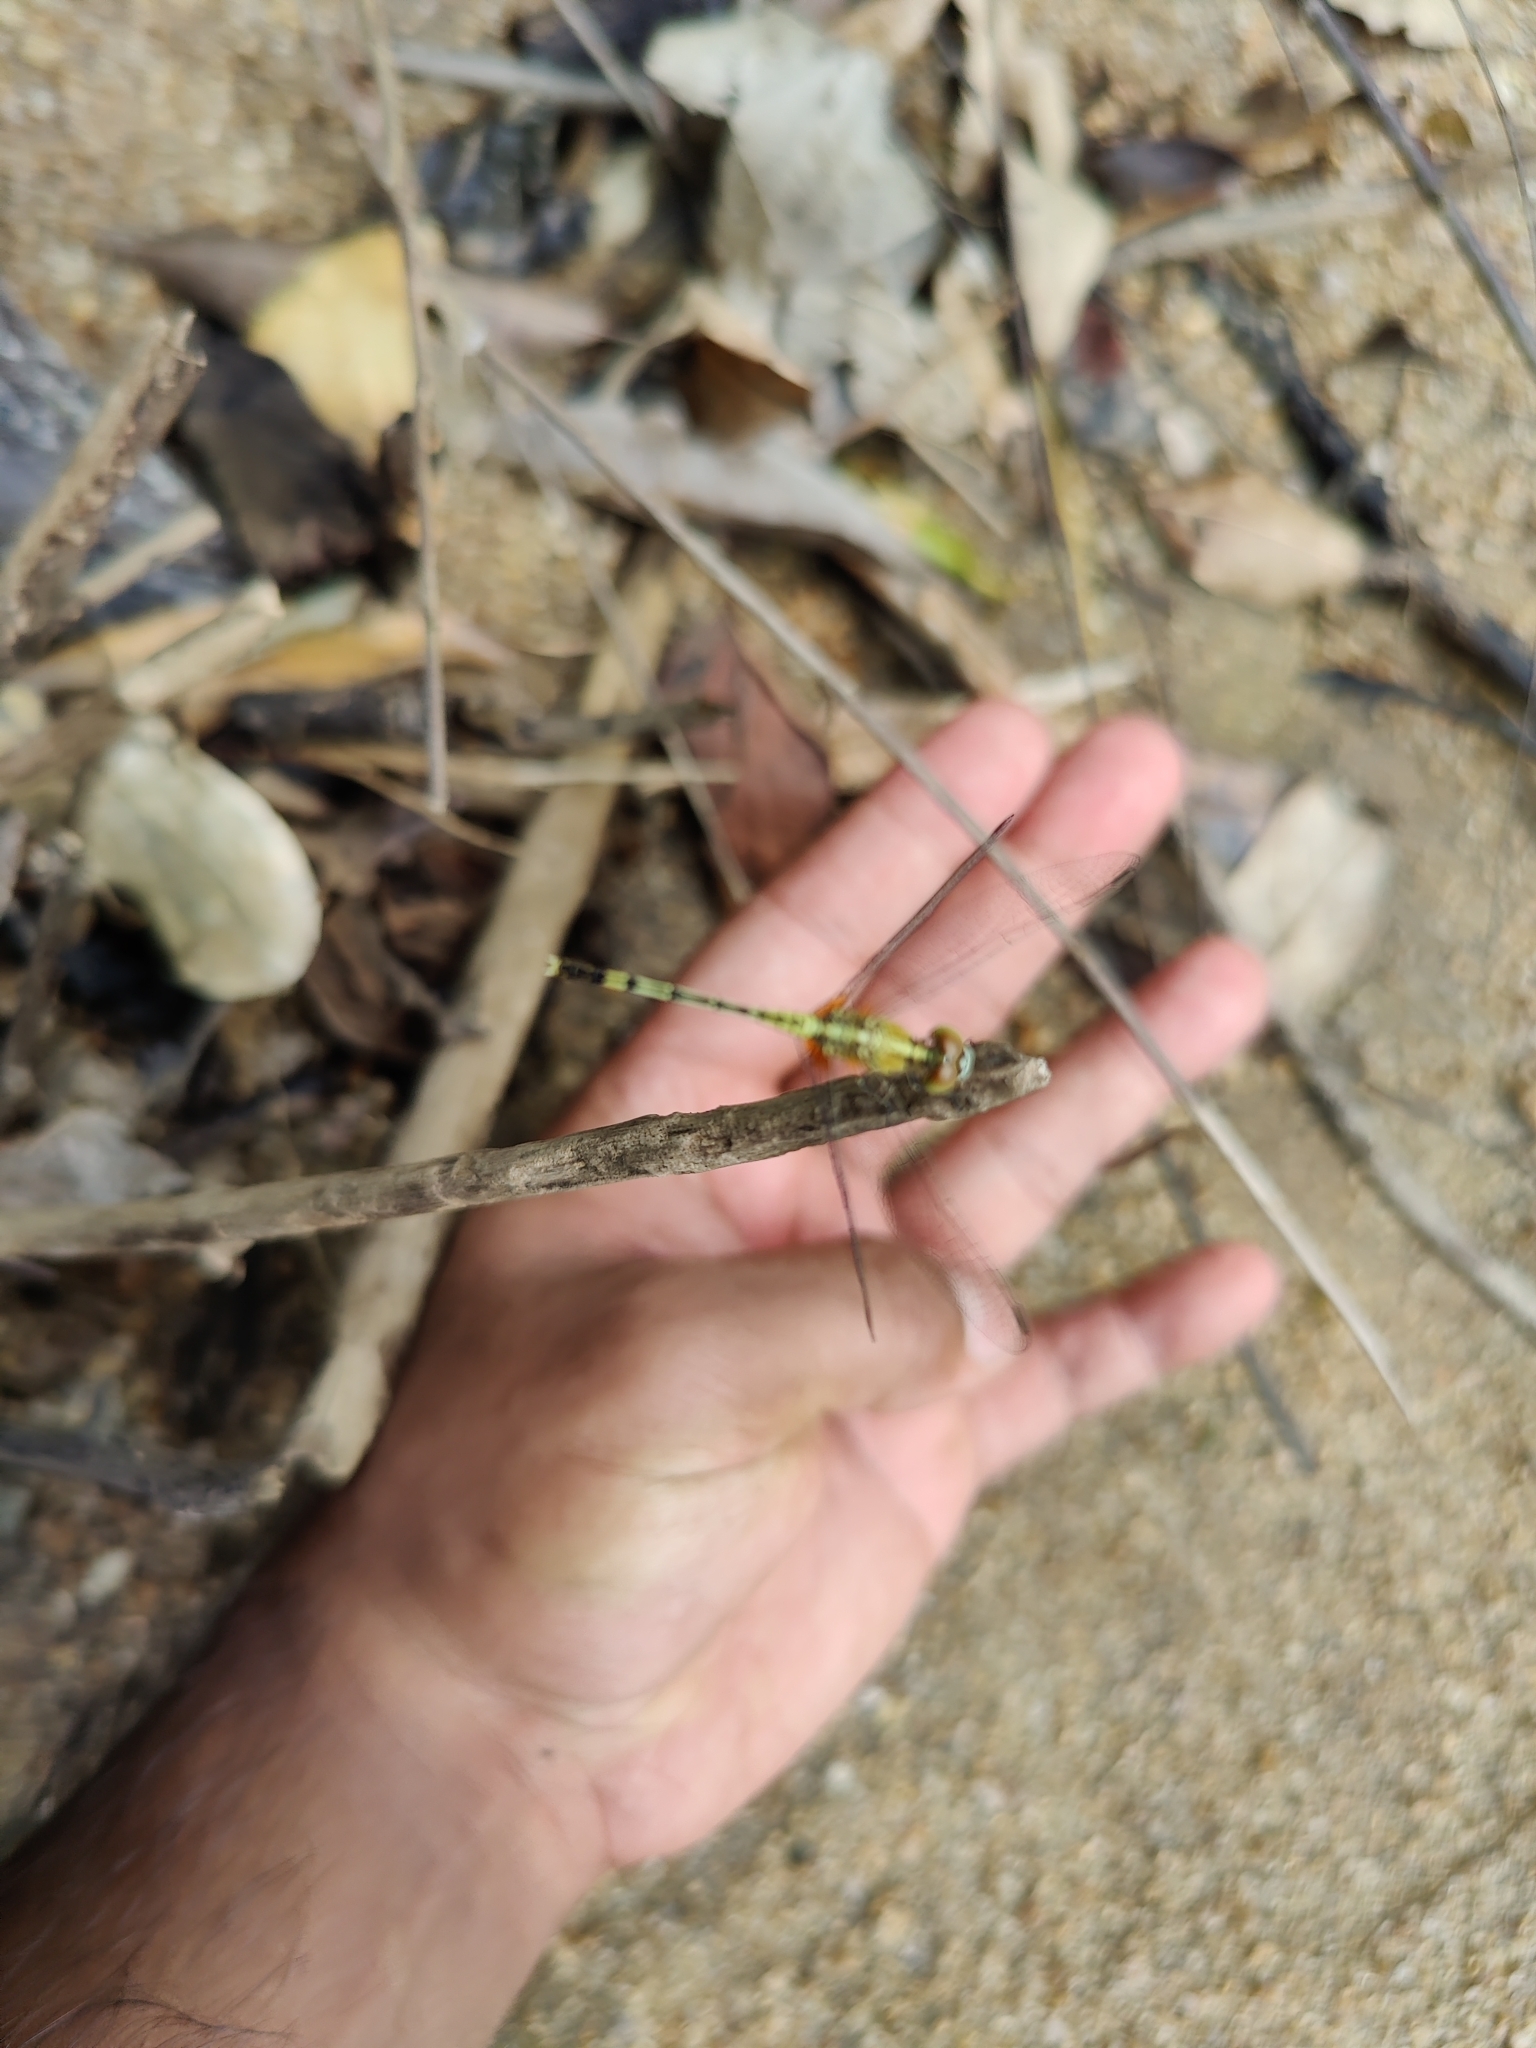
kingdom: Animalia
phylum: Arthropoda
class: Insecta
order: Odonata
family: Libellulidae
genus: Diplacodes
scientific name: Diplacodes trivialis
